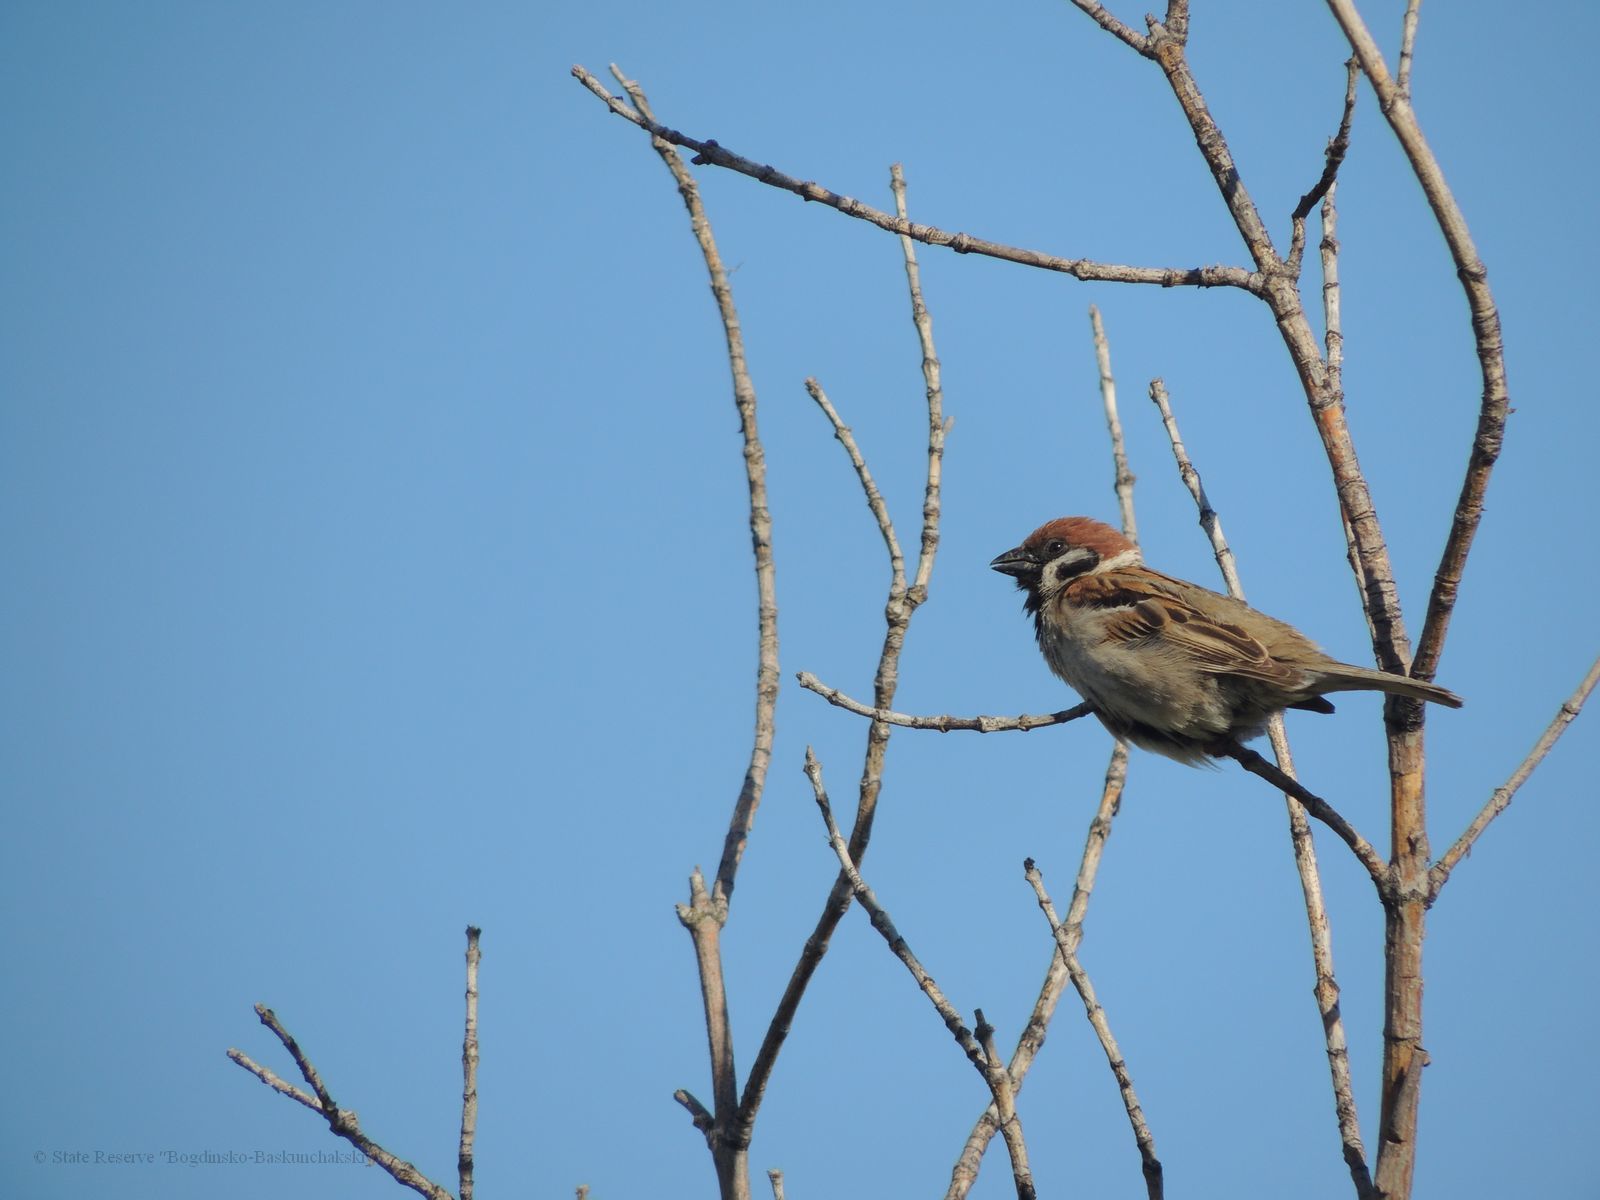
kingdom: Animalia
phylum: Chordata
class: Aves
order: Passeriformes
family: Passeridae
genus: Passer
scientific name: Passer montanus
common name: Eurasian tree sparrow
